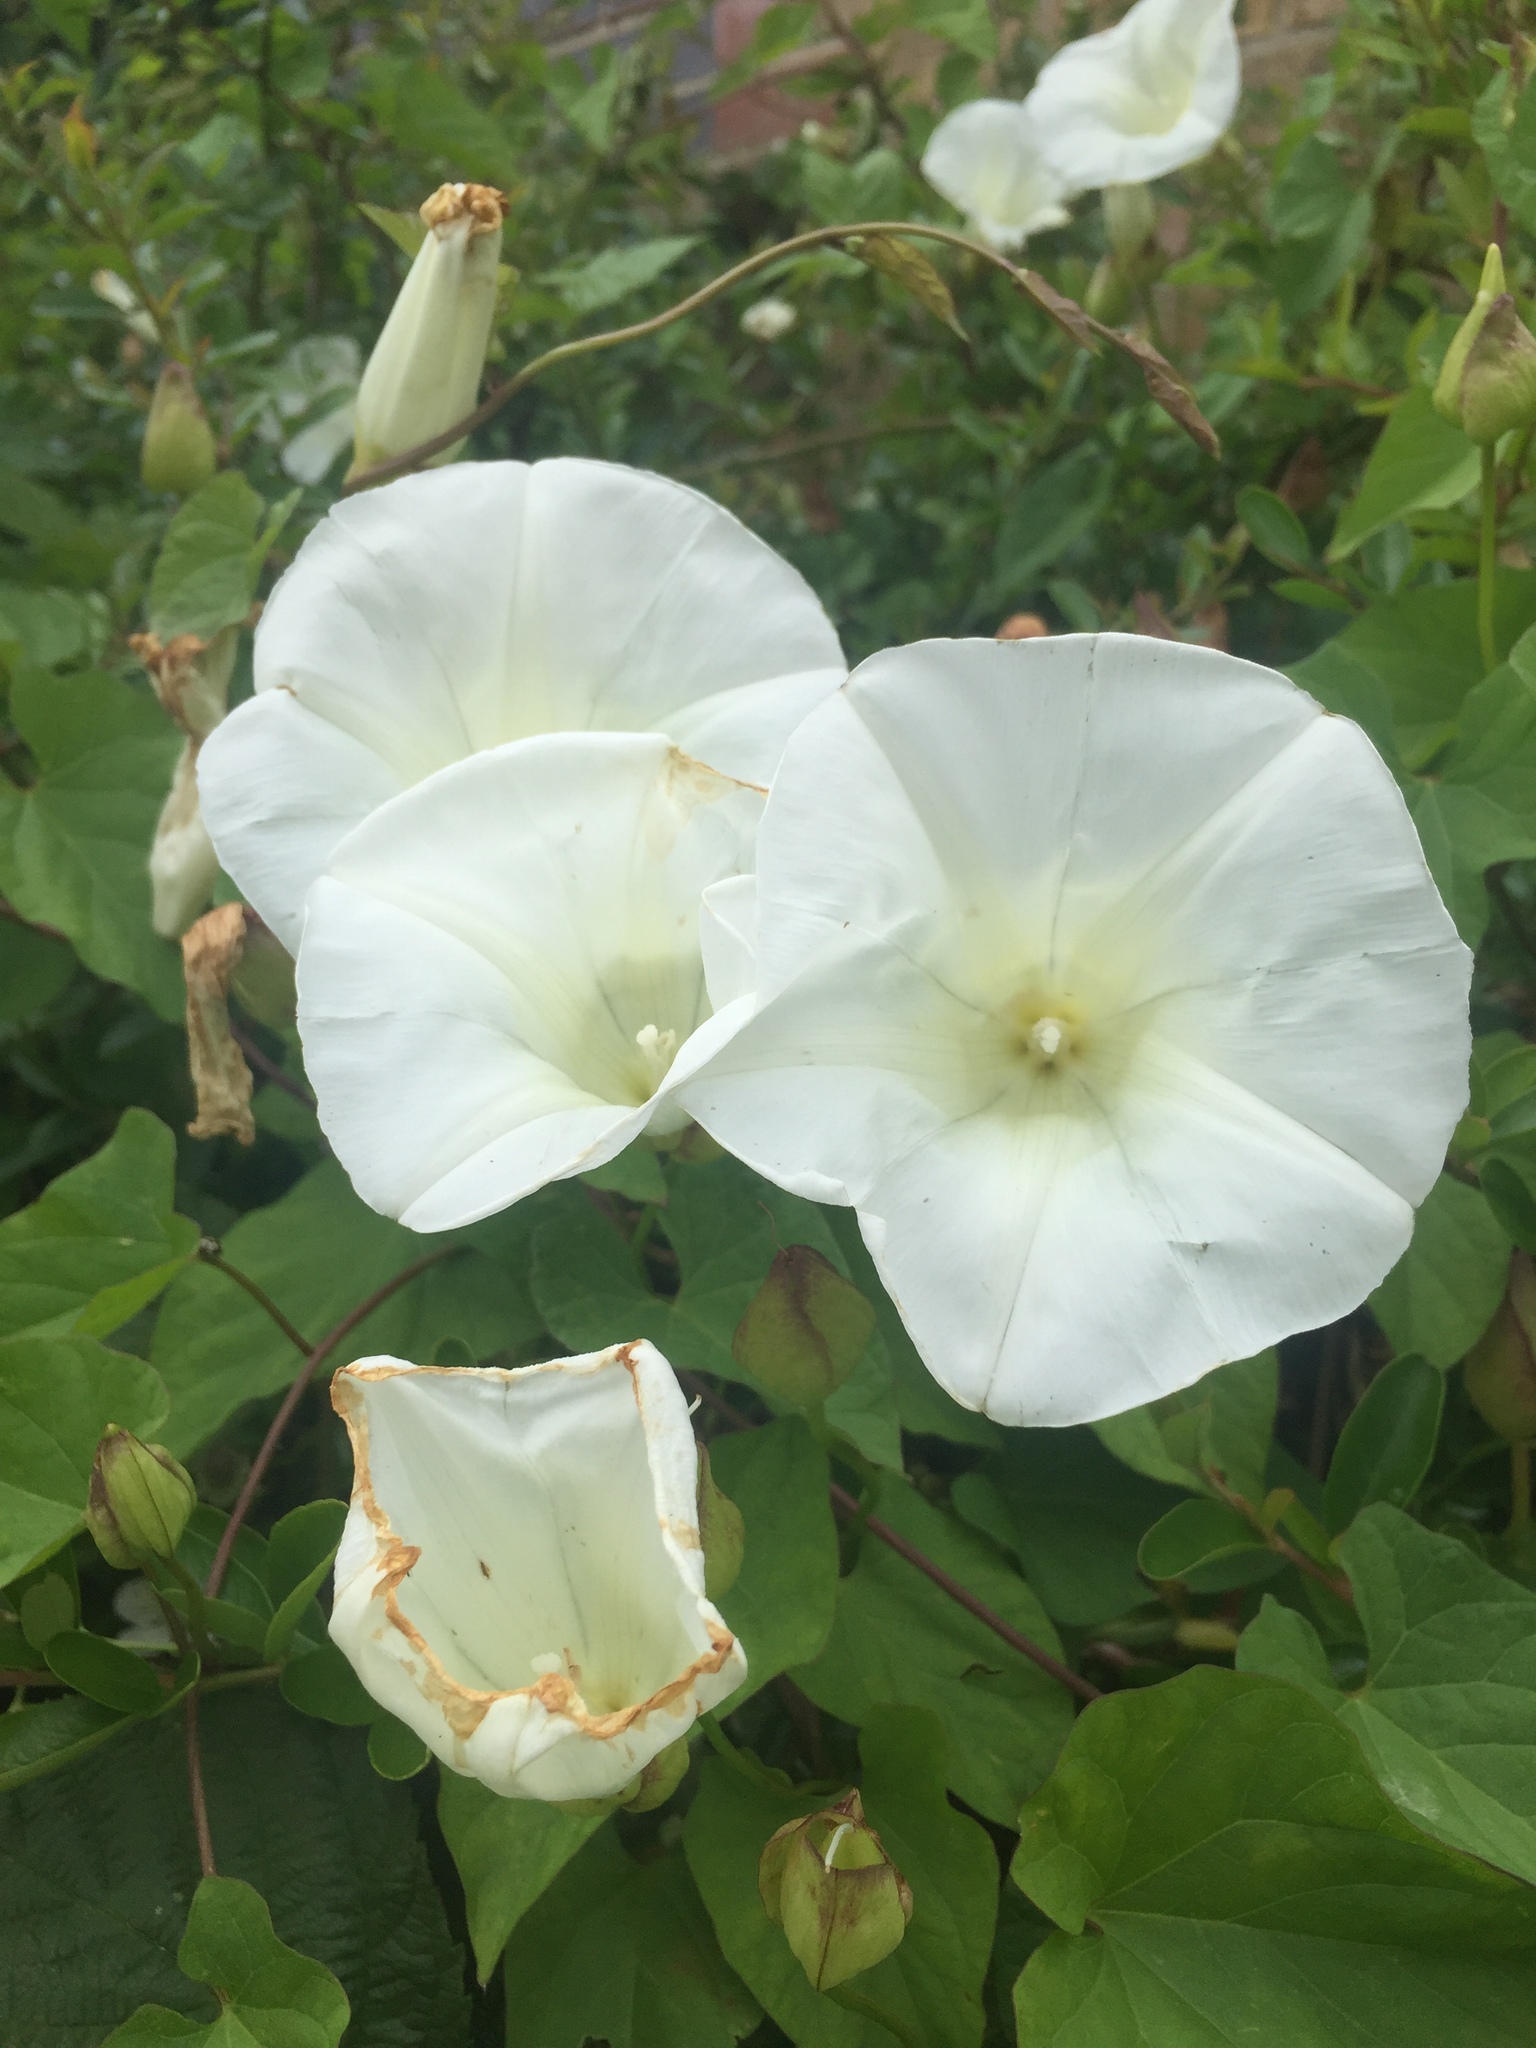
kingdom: Plantae
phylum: Tracheophyta
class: Magnoliopsida
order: Solanales
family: Convolvulaceae
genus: Calystegia
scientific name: Calystegia silvatica
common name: Large bindweed
